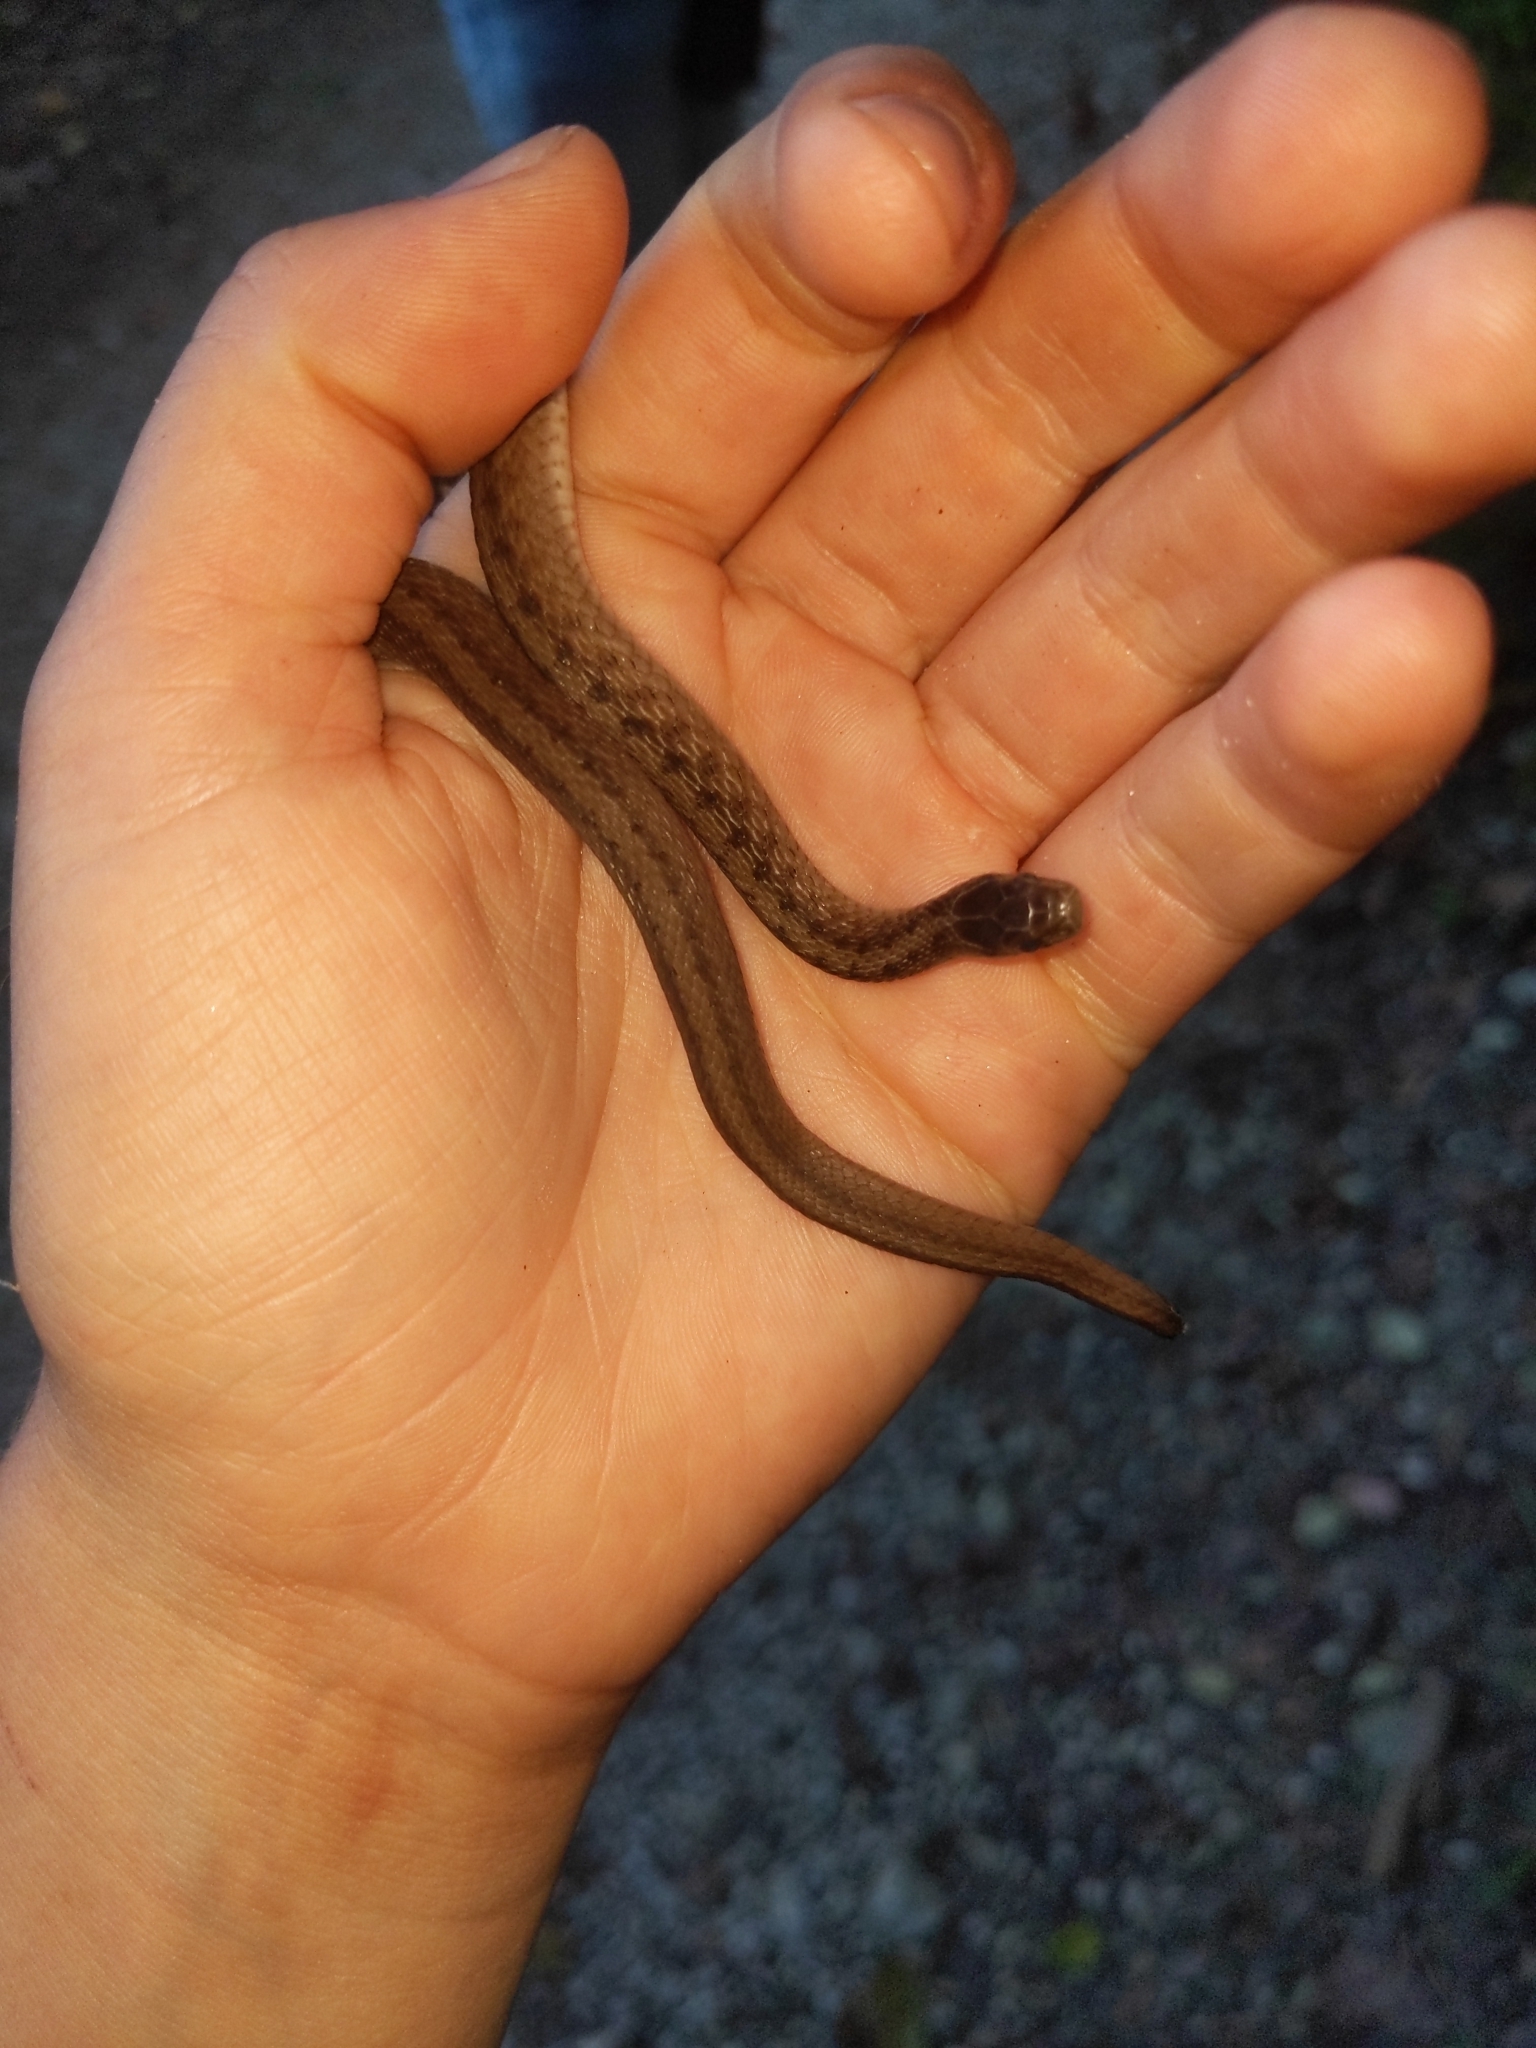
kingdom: Animalia
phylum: Chordata
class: Squamata
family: Colubridae
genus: Storeria
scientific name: Storeria dekayi
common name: (dekay’s) brown snake
